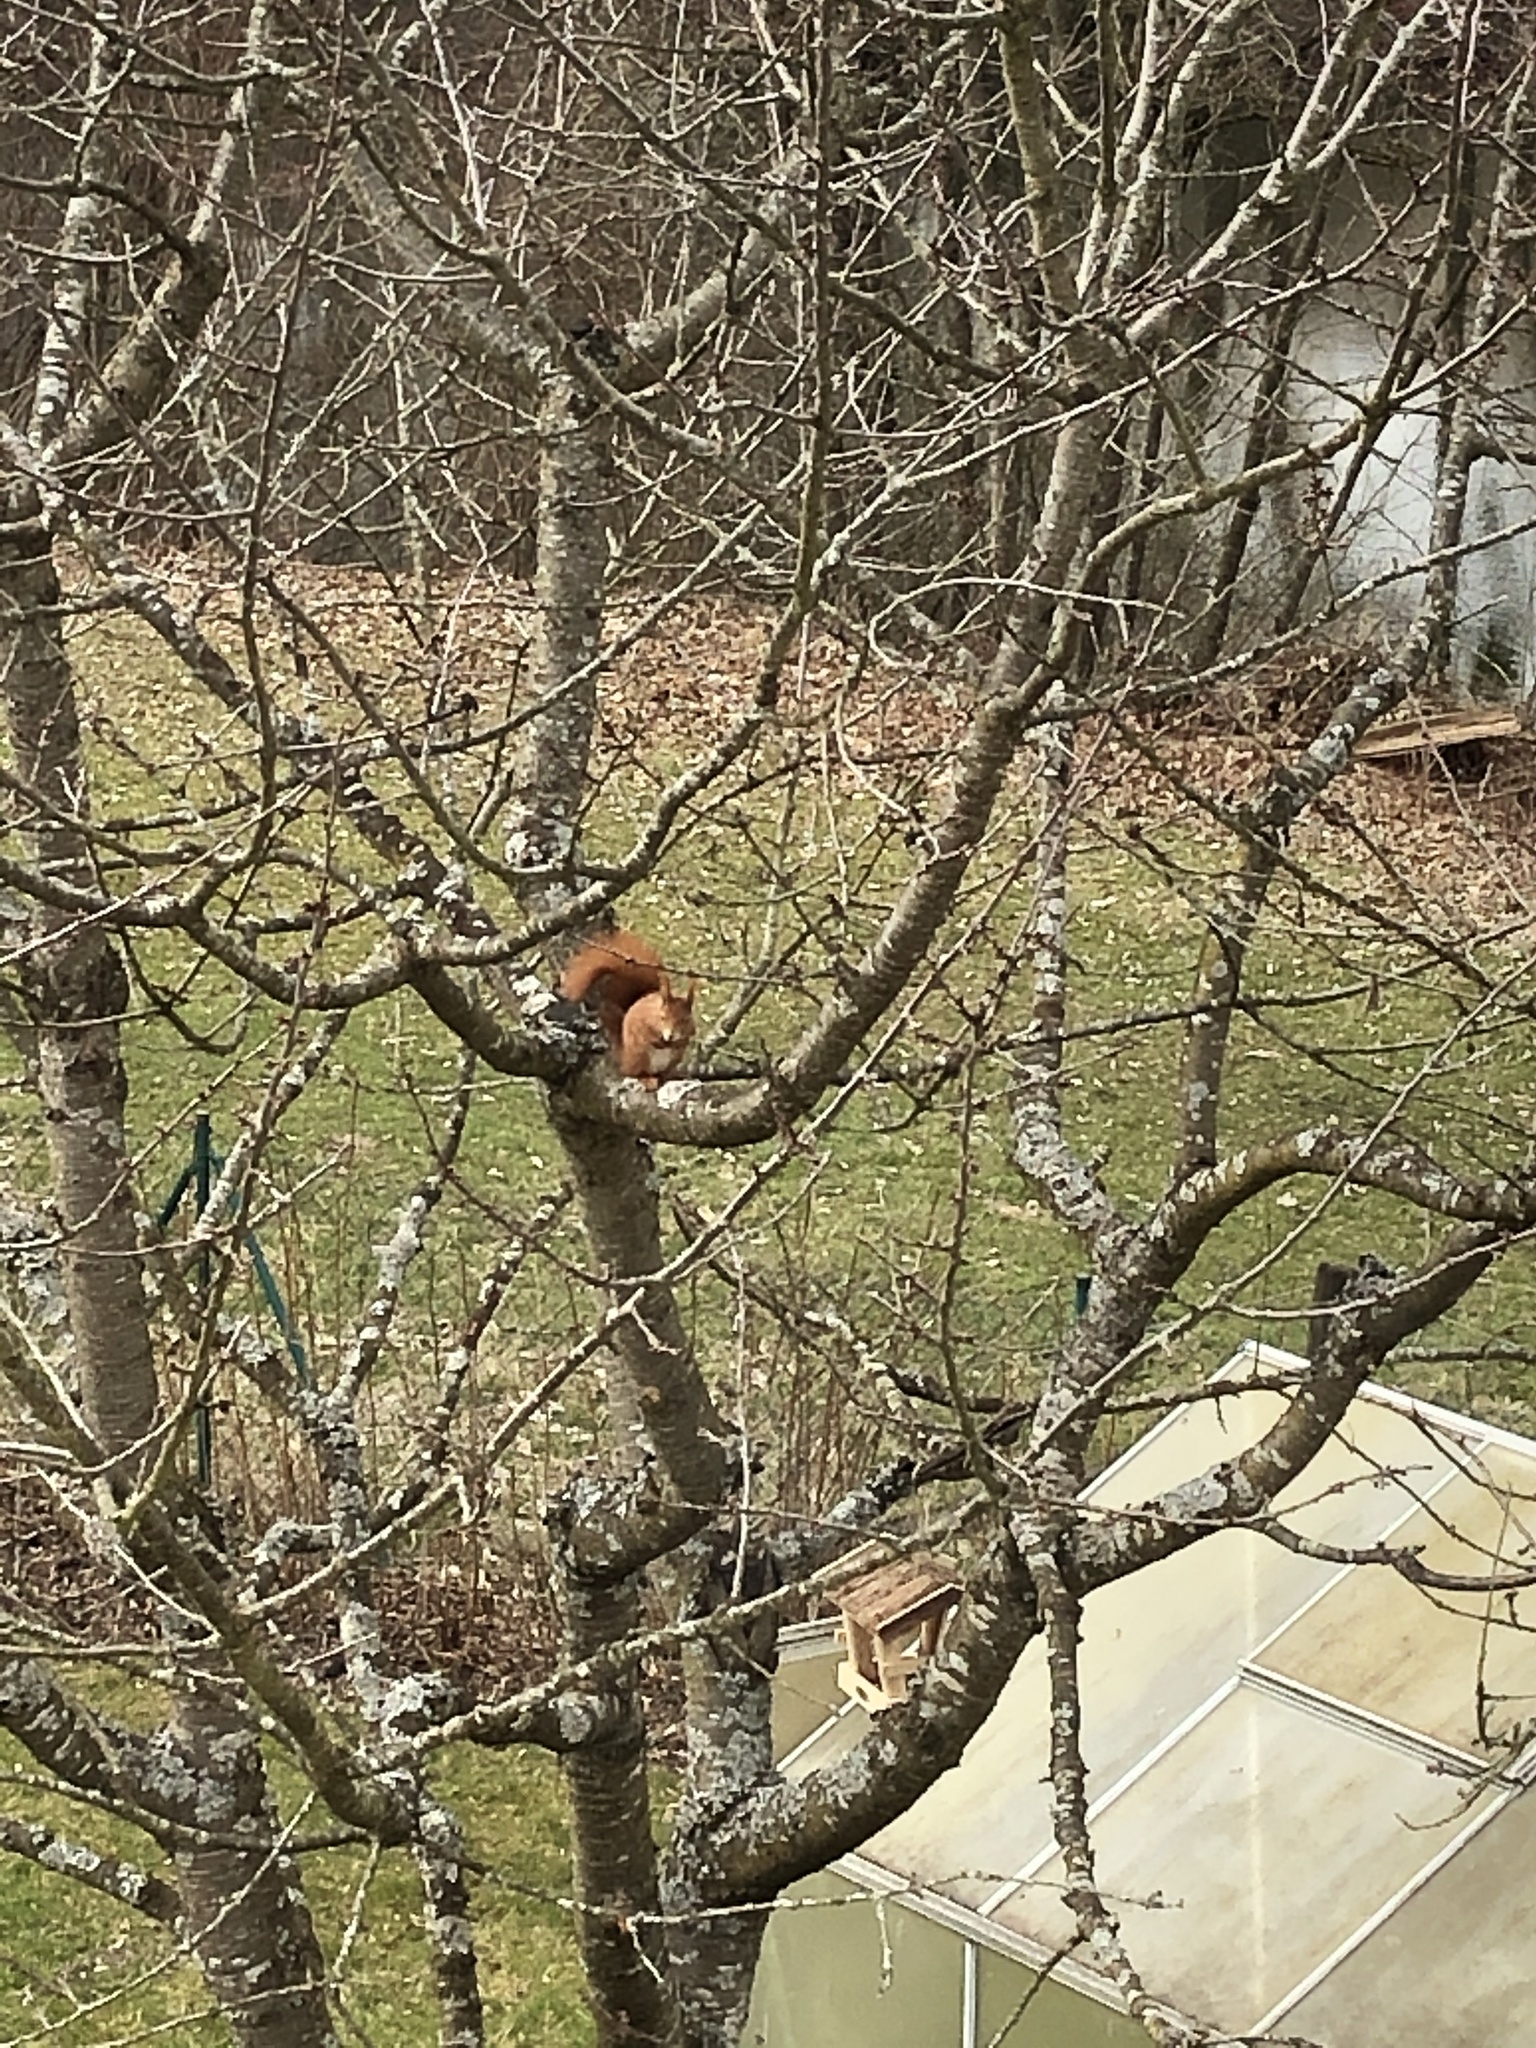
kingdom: Animalia
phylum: Chordata
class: Mammalia
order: Rodentia
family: Sciuridae
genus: Sciurus
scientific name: Sciurus vulgaris
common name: Eurasian red squirrel
